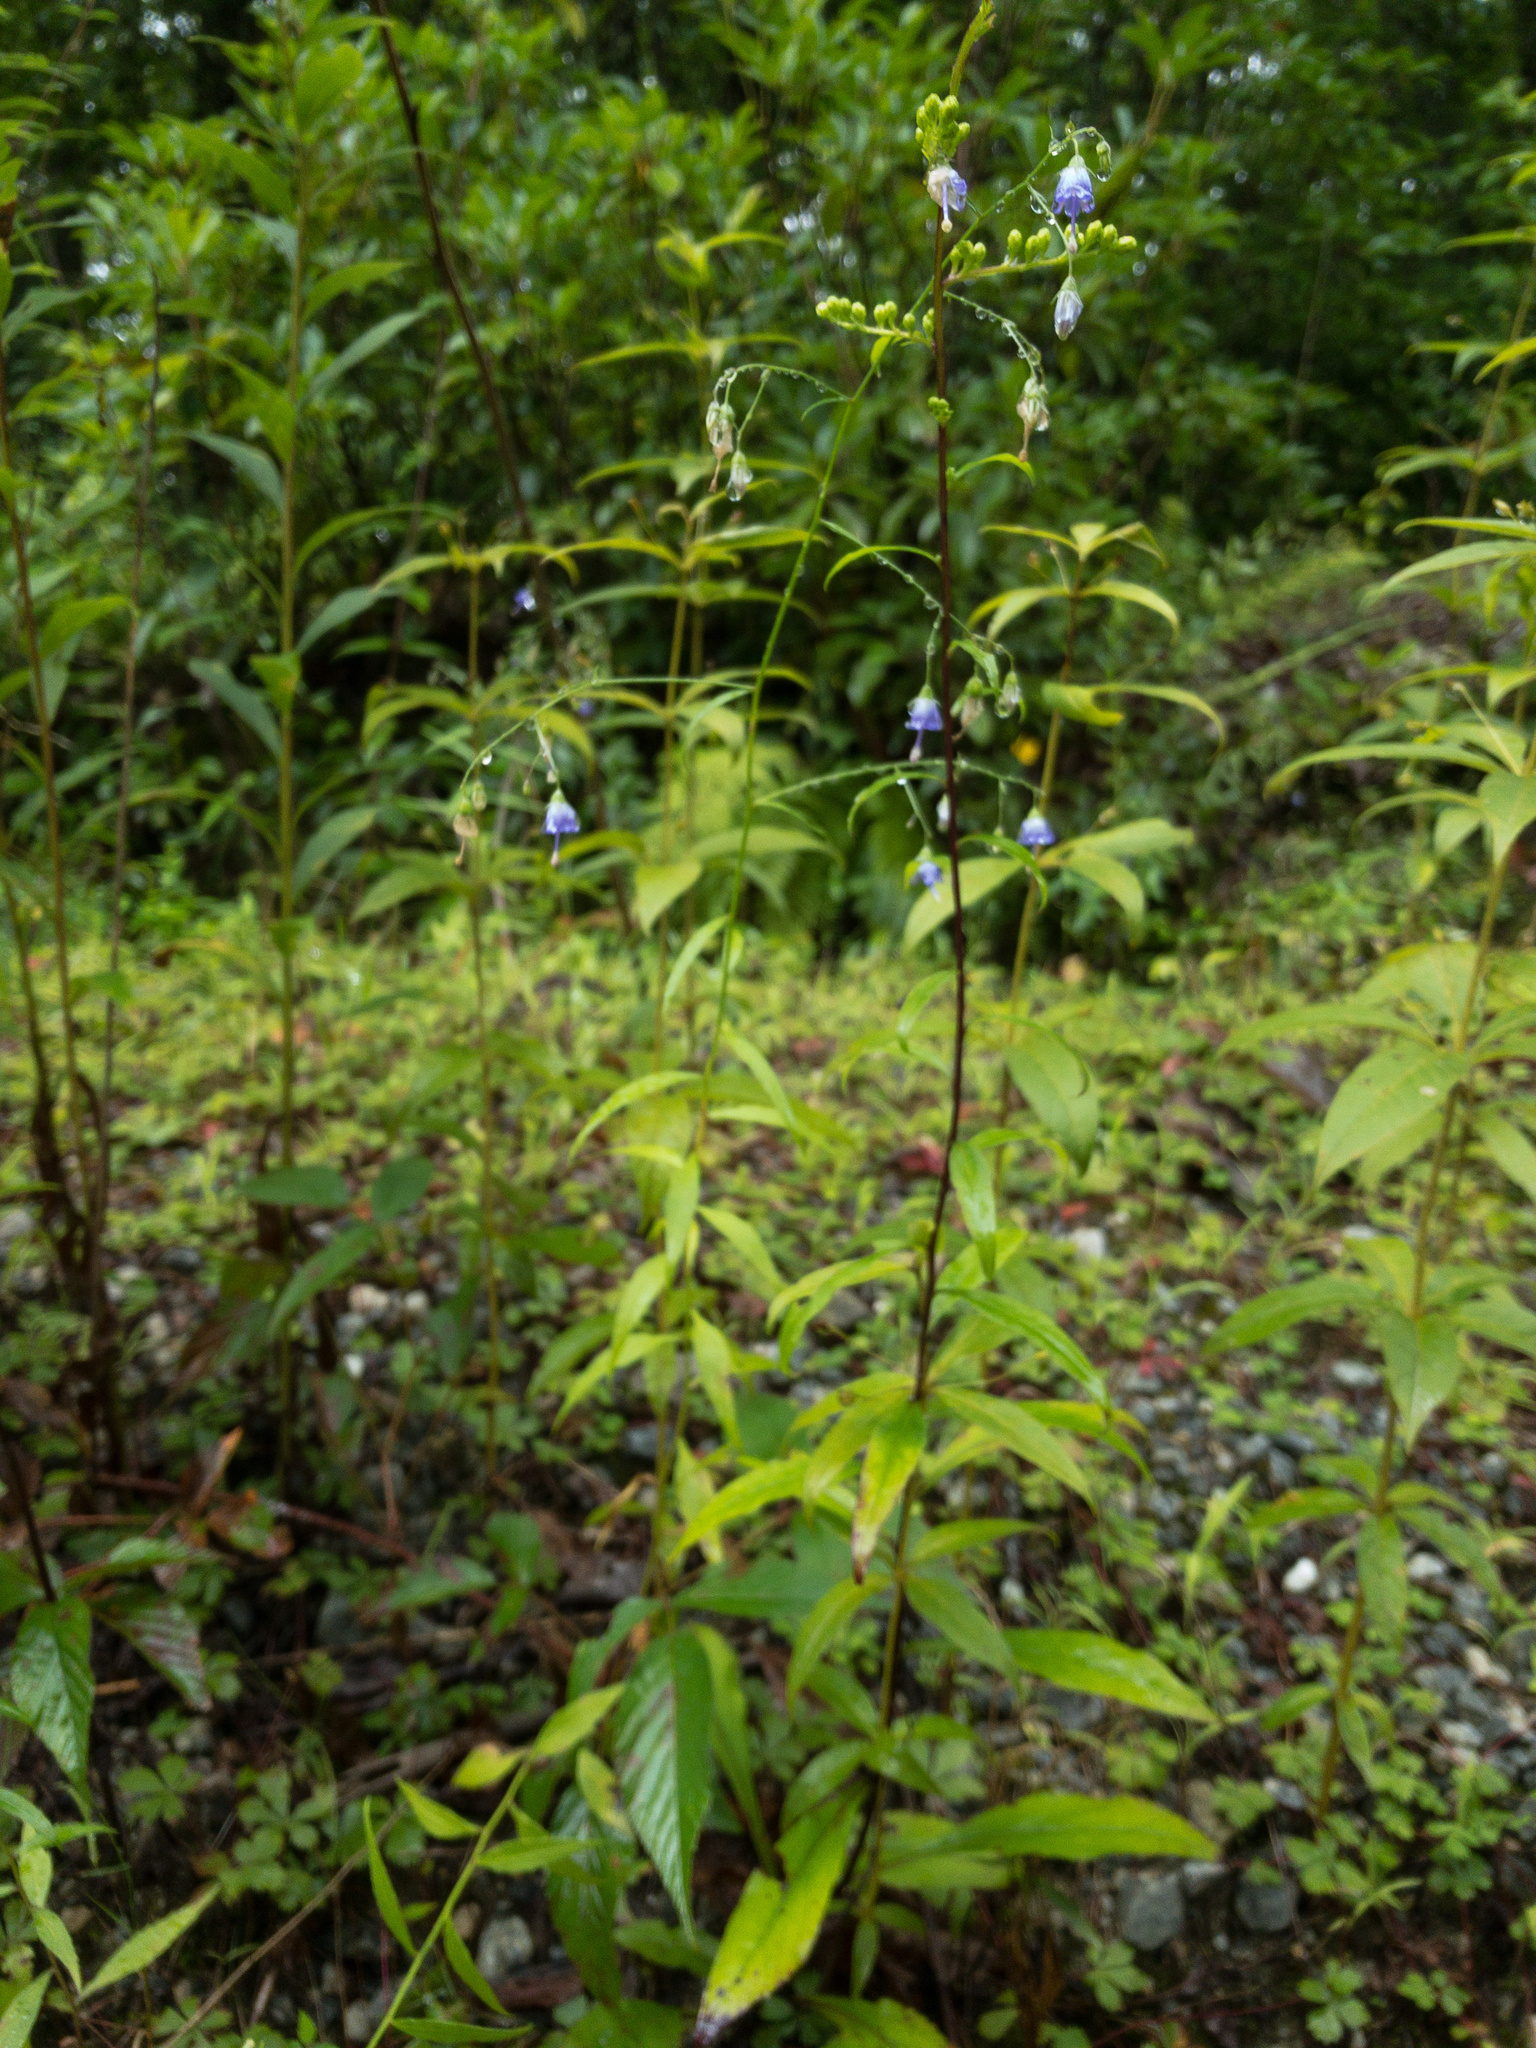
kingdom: Plantae
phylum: Tracheophyta
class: Magnoliopsida
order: Asterales
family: Campanulaceae
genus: Campanula
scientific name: Campanula divaricata
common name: Appalachian bellflower
